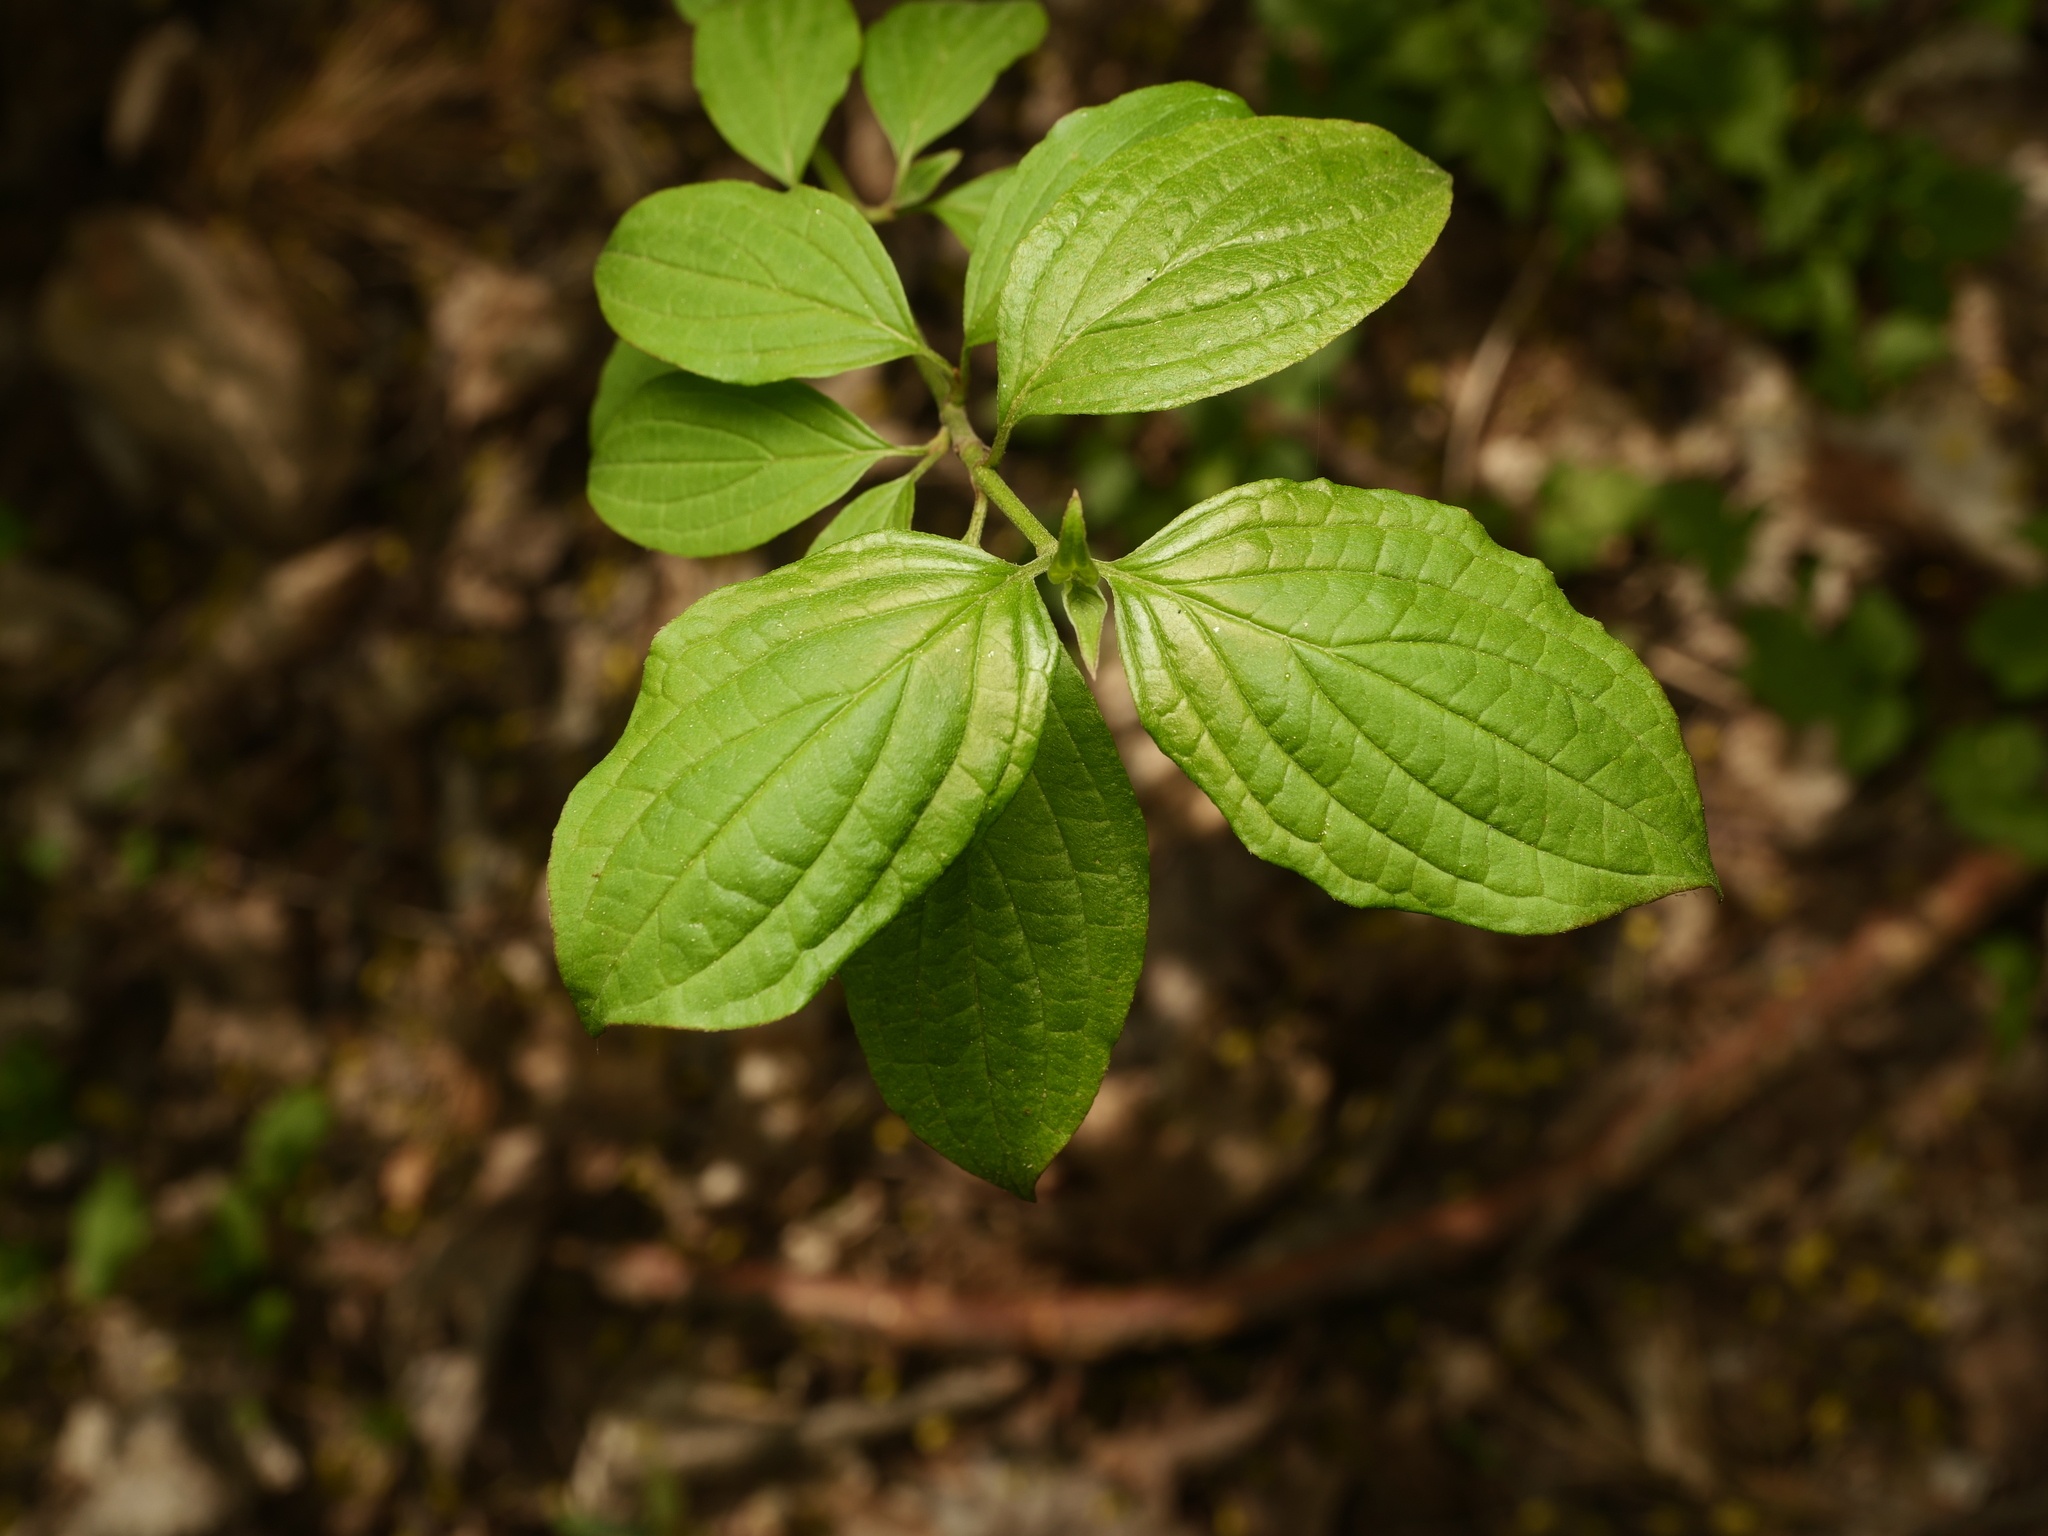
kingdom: Plantae
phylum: Tracheophyta
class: Magnoliopsida
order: Cornales
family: Cornaceae
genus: Cornus
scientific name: Cornus sanguinea
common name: Dogwood
